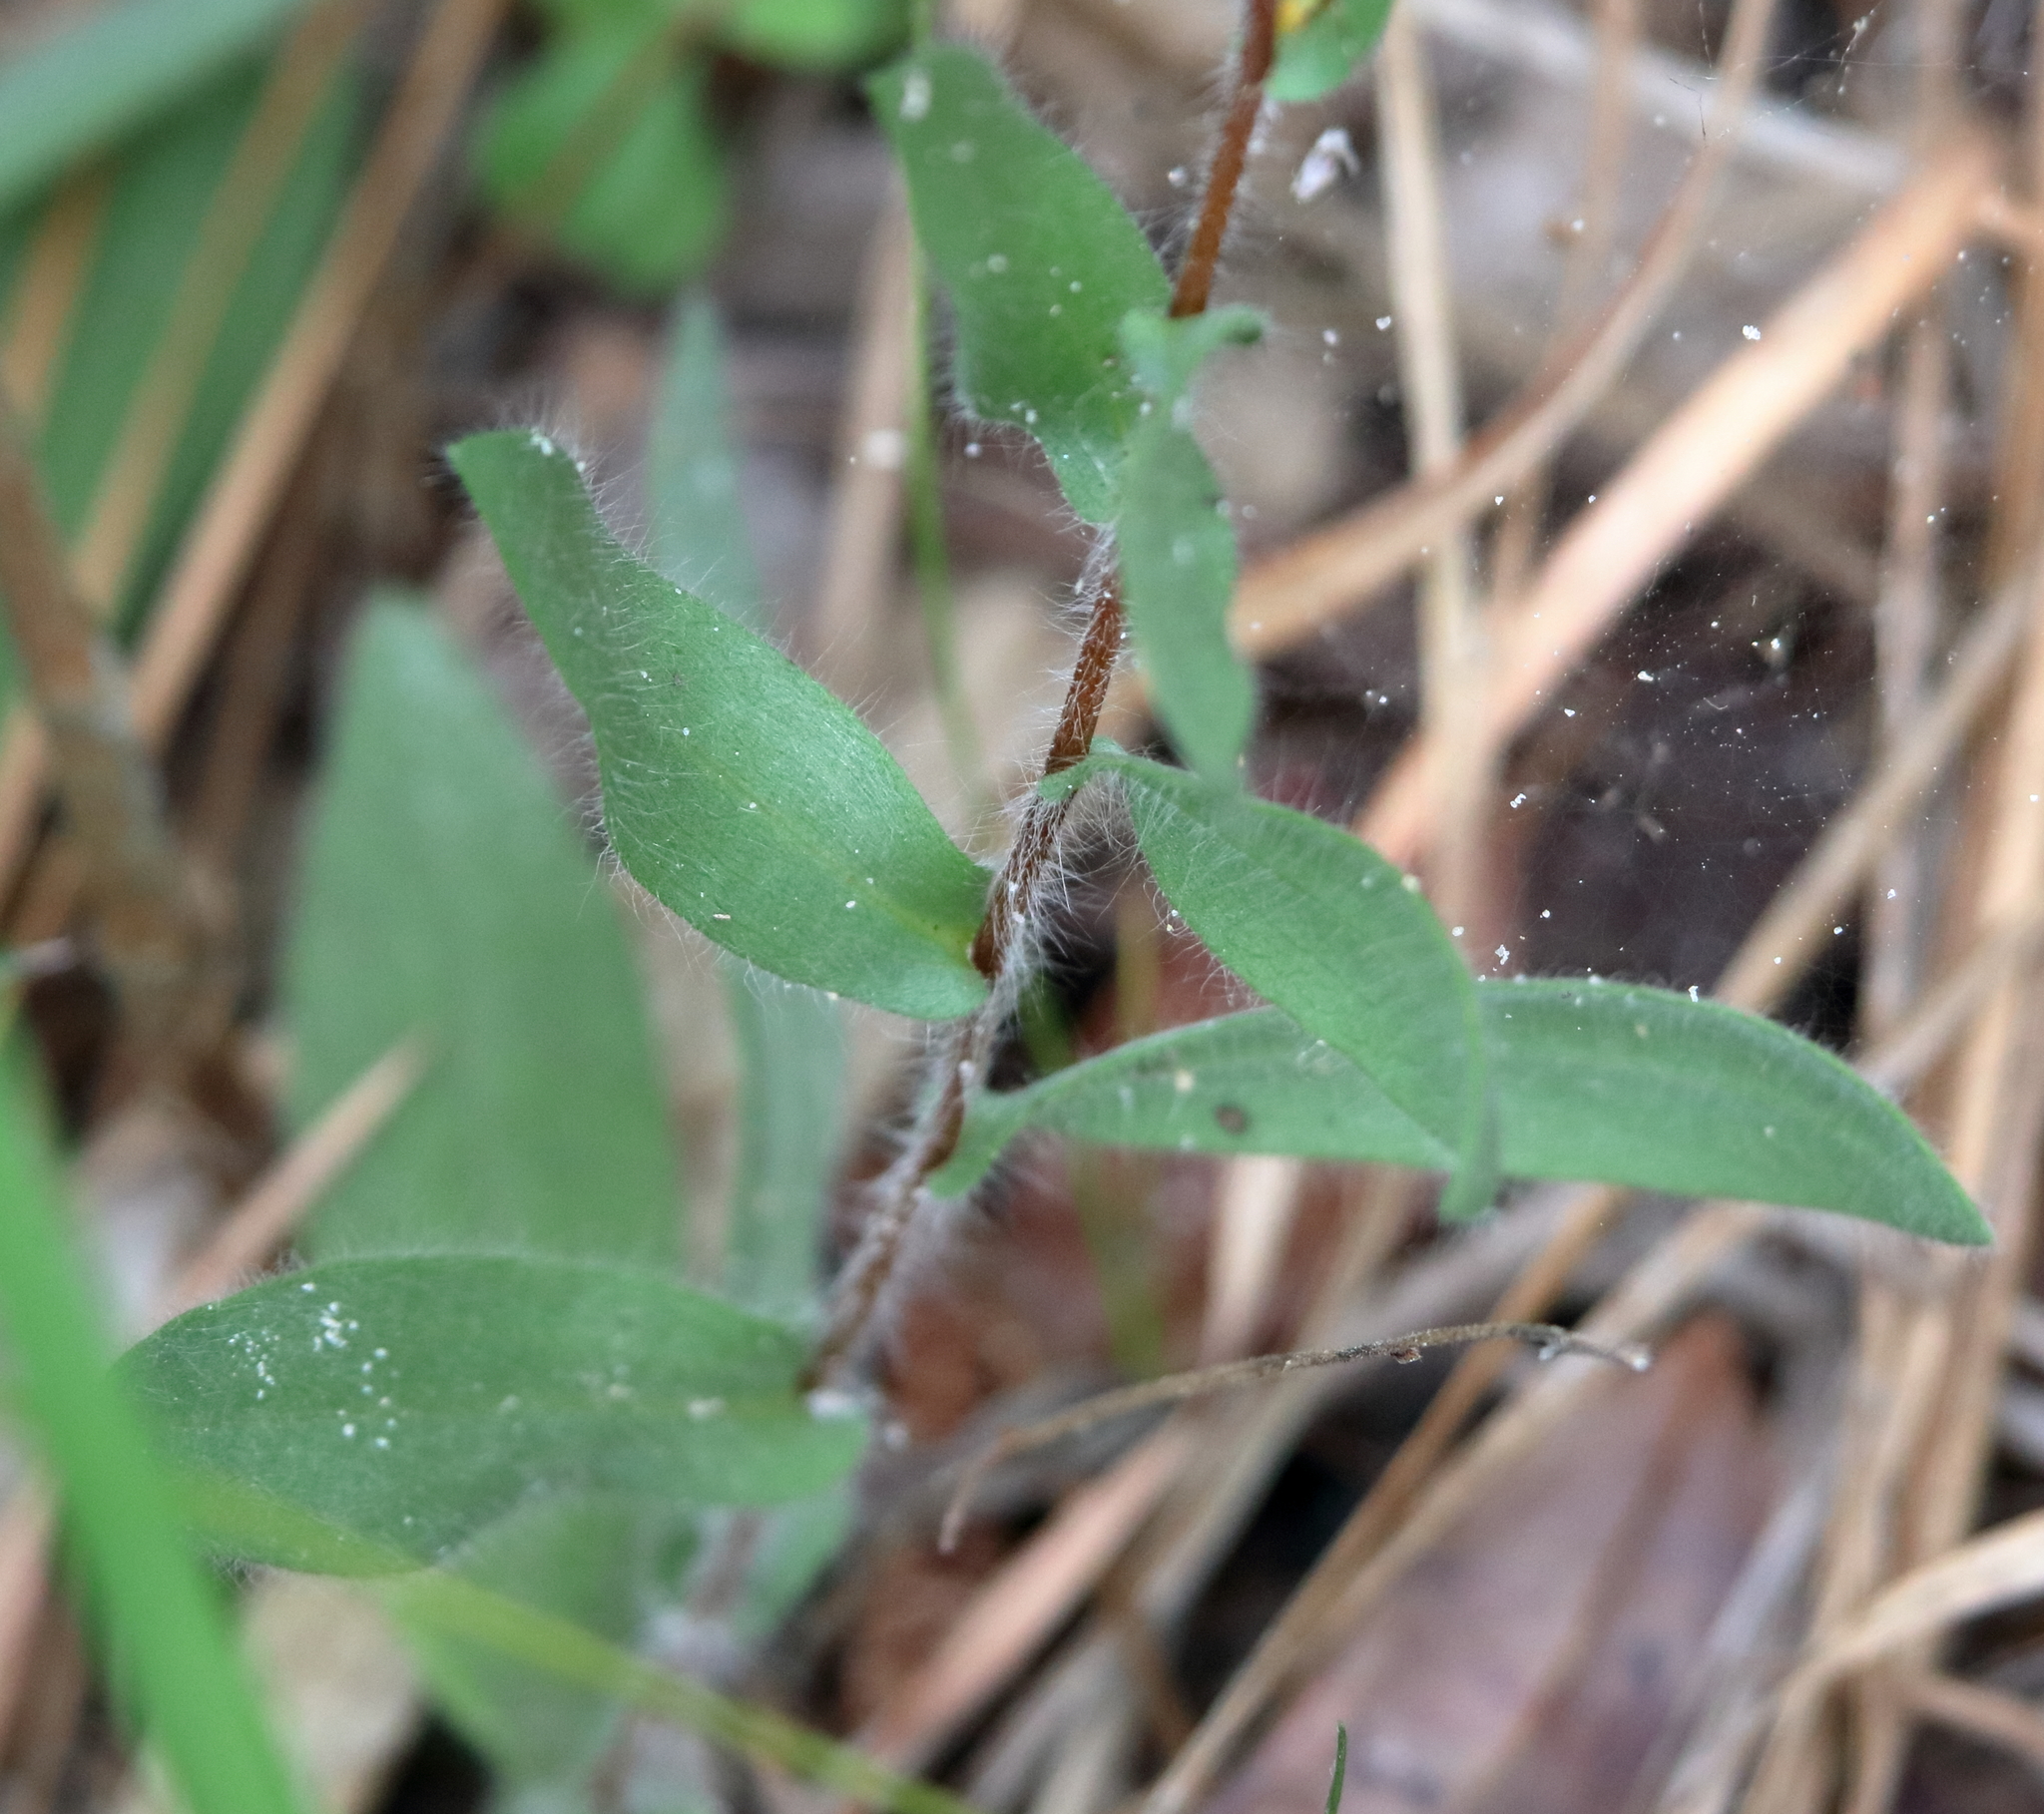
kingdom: Plantae
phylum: Tracheophyta
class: Magnoliopsida
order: Asterales
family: Asteraceae
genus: Symphyotrichum
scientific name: Symphyotrichum concolor
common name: Eastern silver aster
